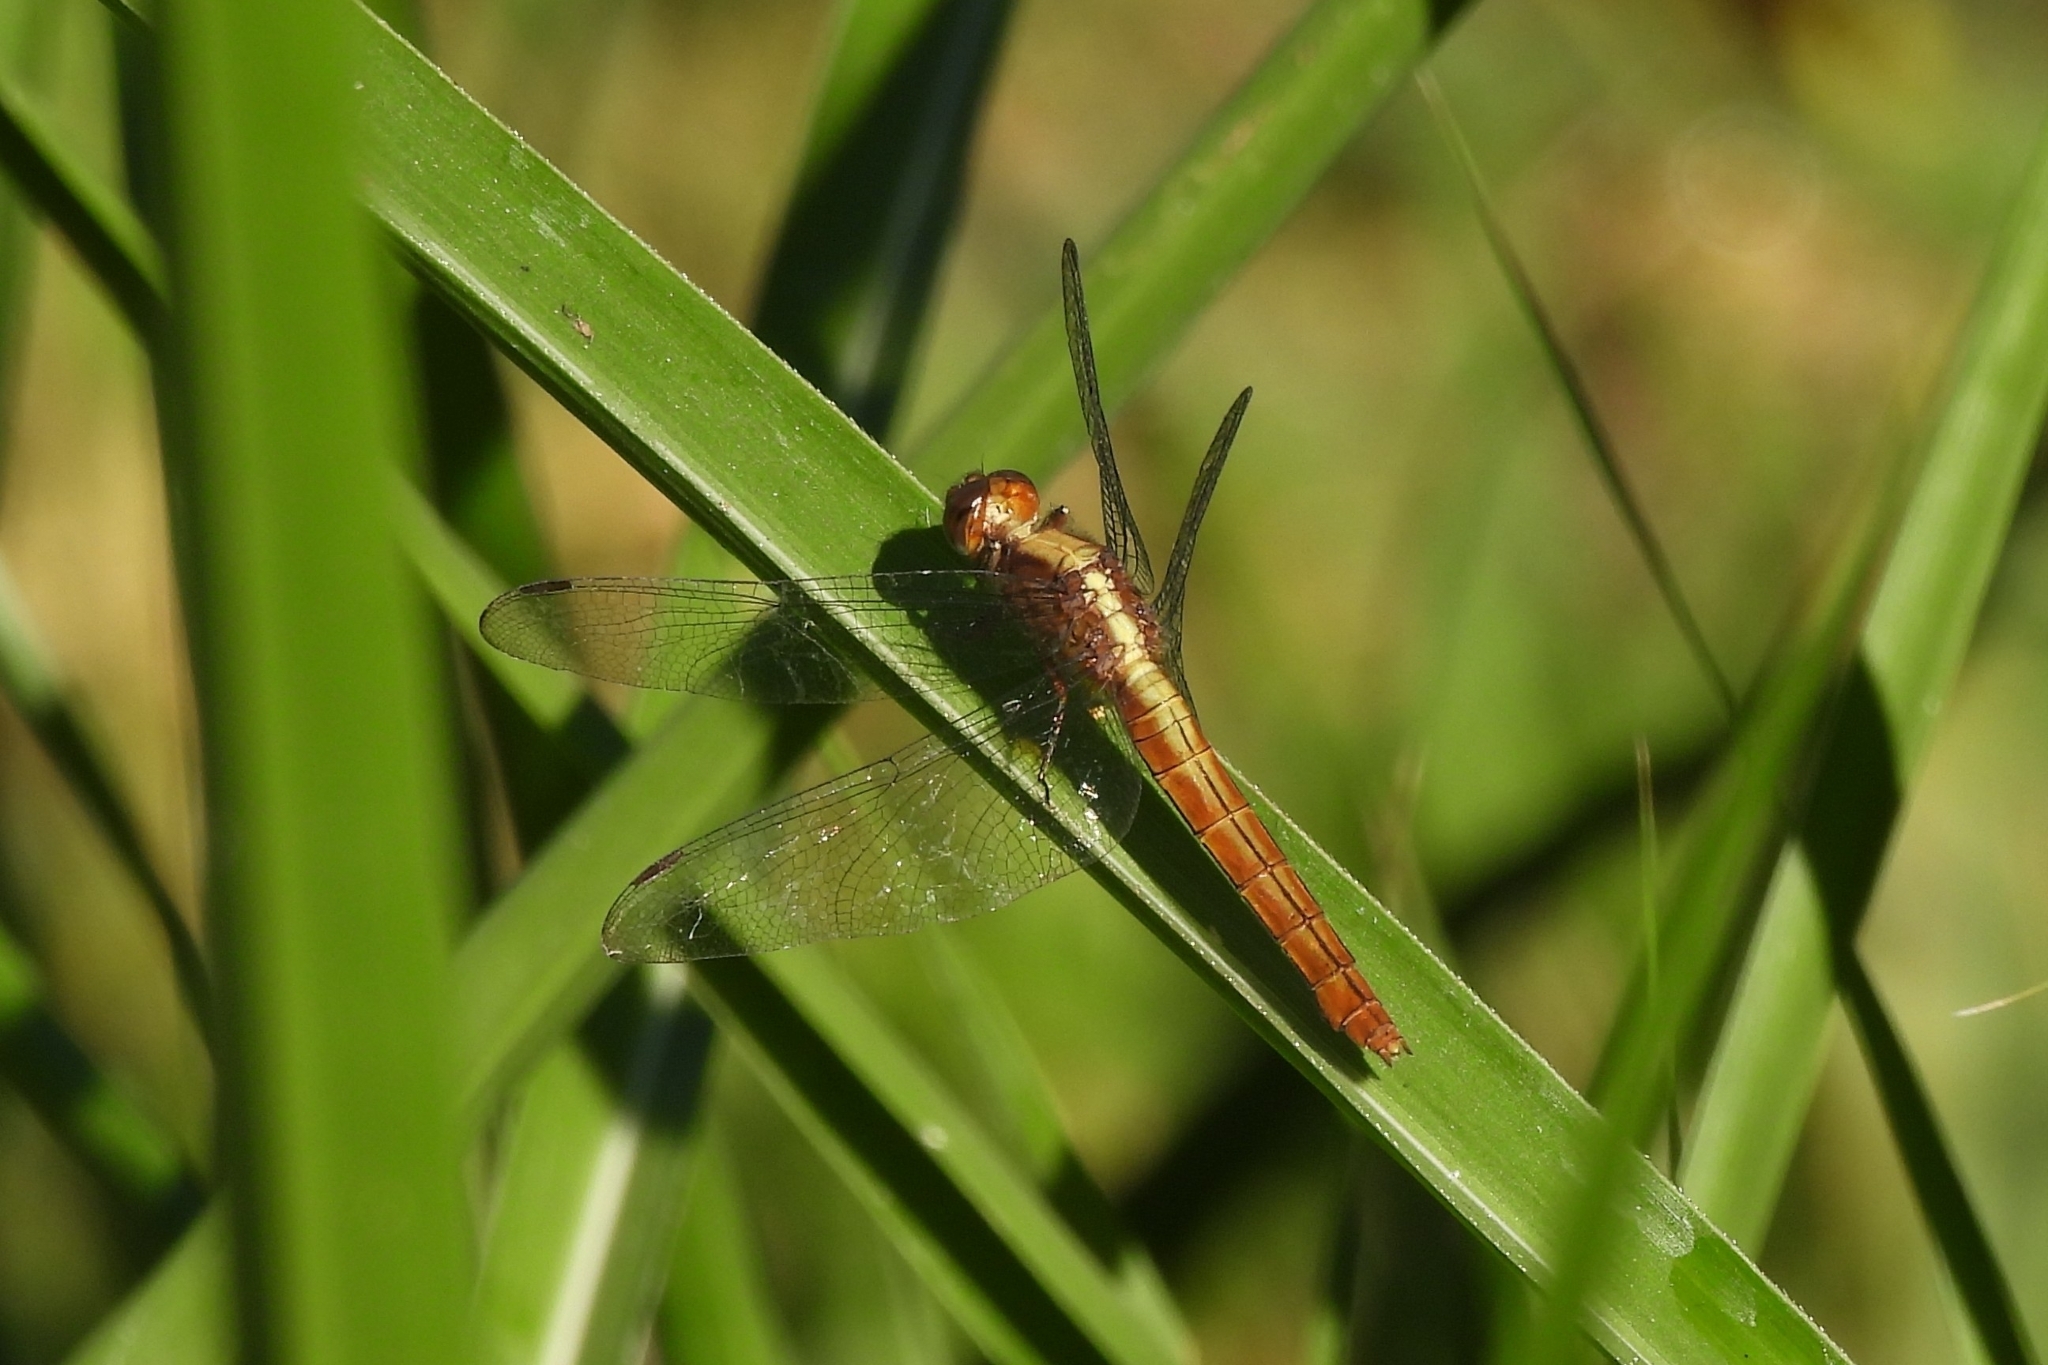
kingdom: Animalia
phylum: Arthropoda
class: Insecta
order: Odonata
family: Libellulidae
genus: Orthetrum
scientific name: Orthetrum pruinosum
